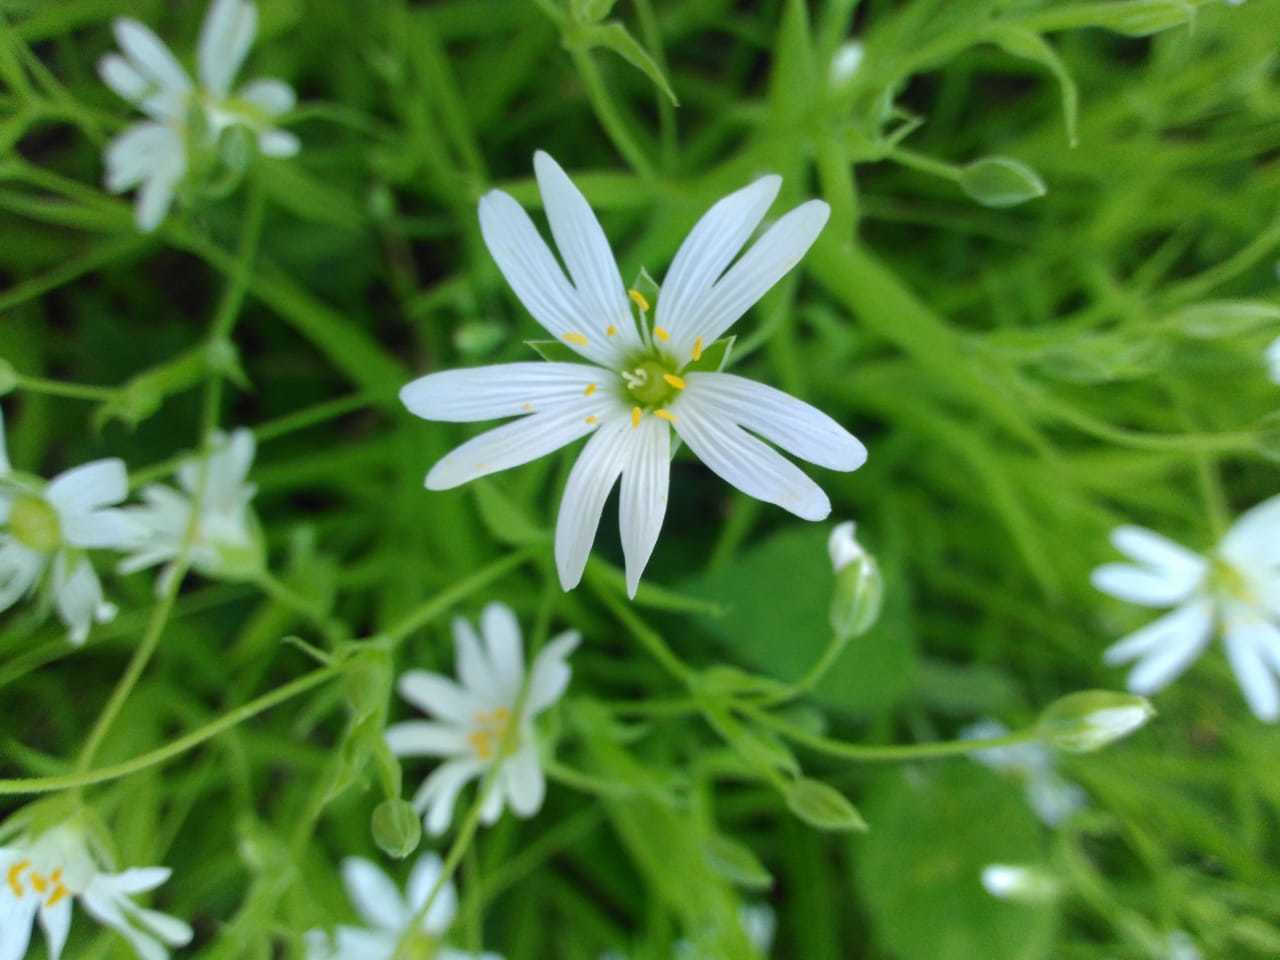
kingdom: Plantae
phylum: Tracheophyta
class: Magnoliopsida
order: Caryophyllales
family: Caryophyllaceae
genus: Rabelera
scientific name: Rabelera holostea
